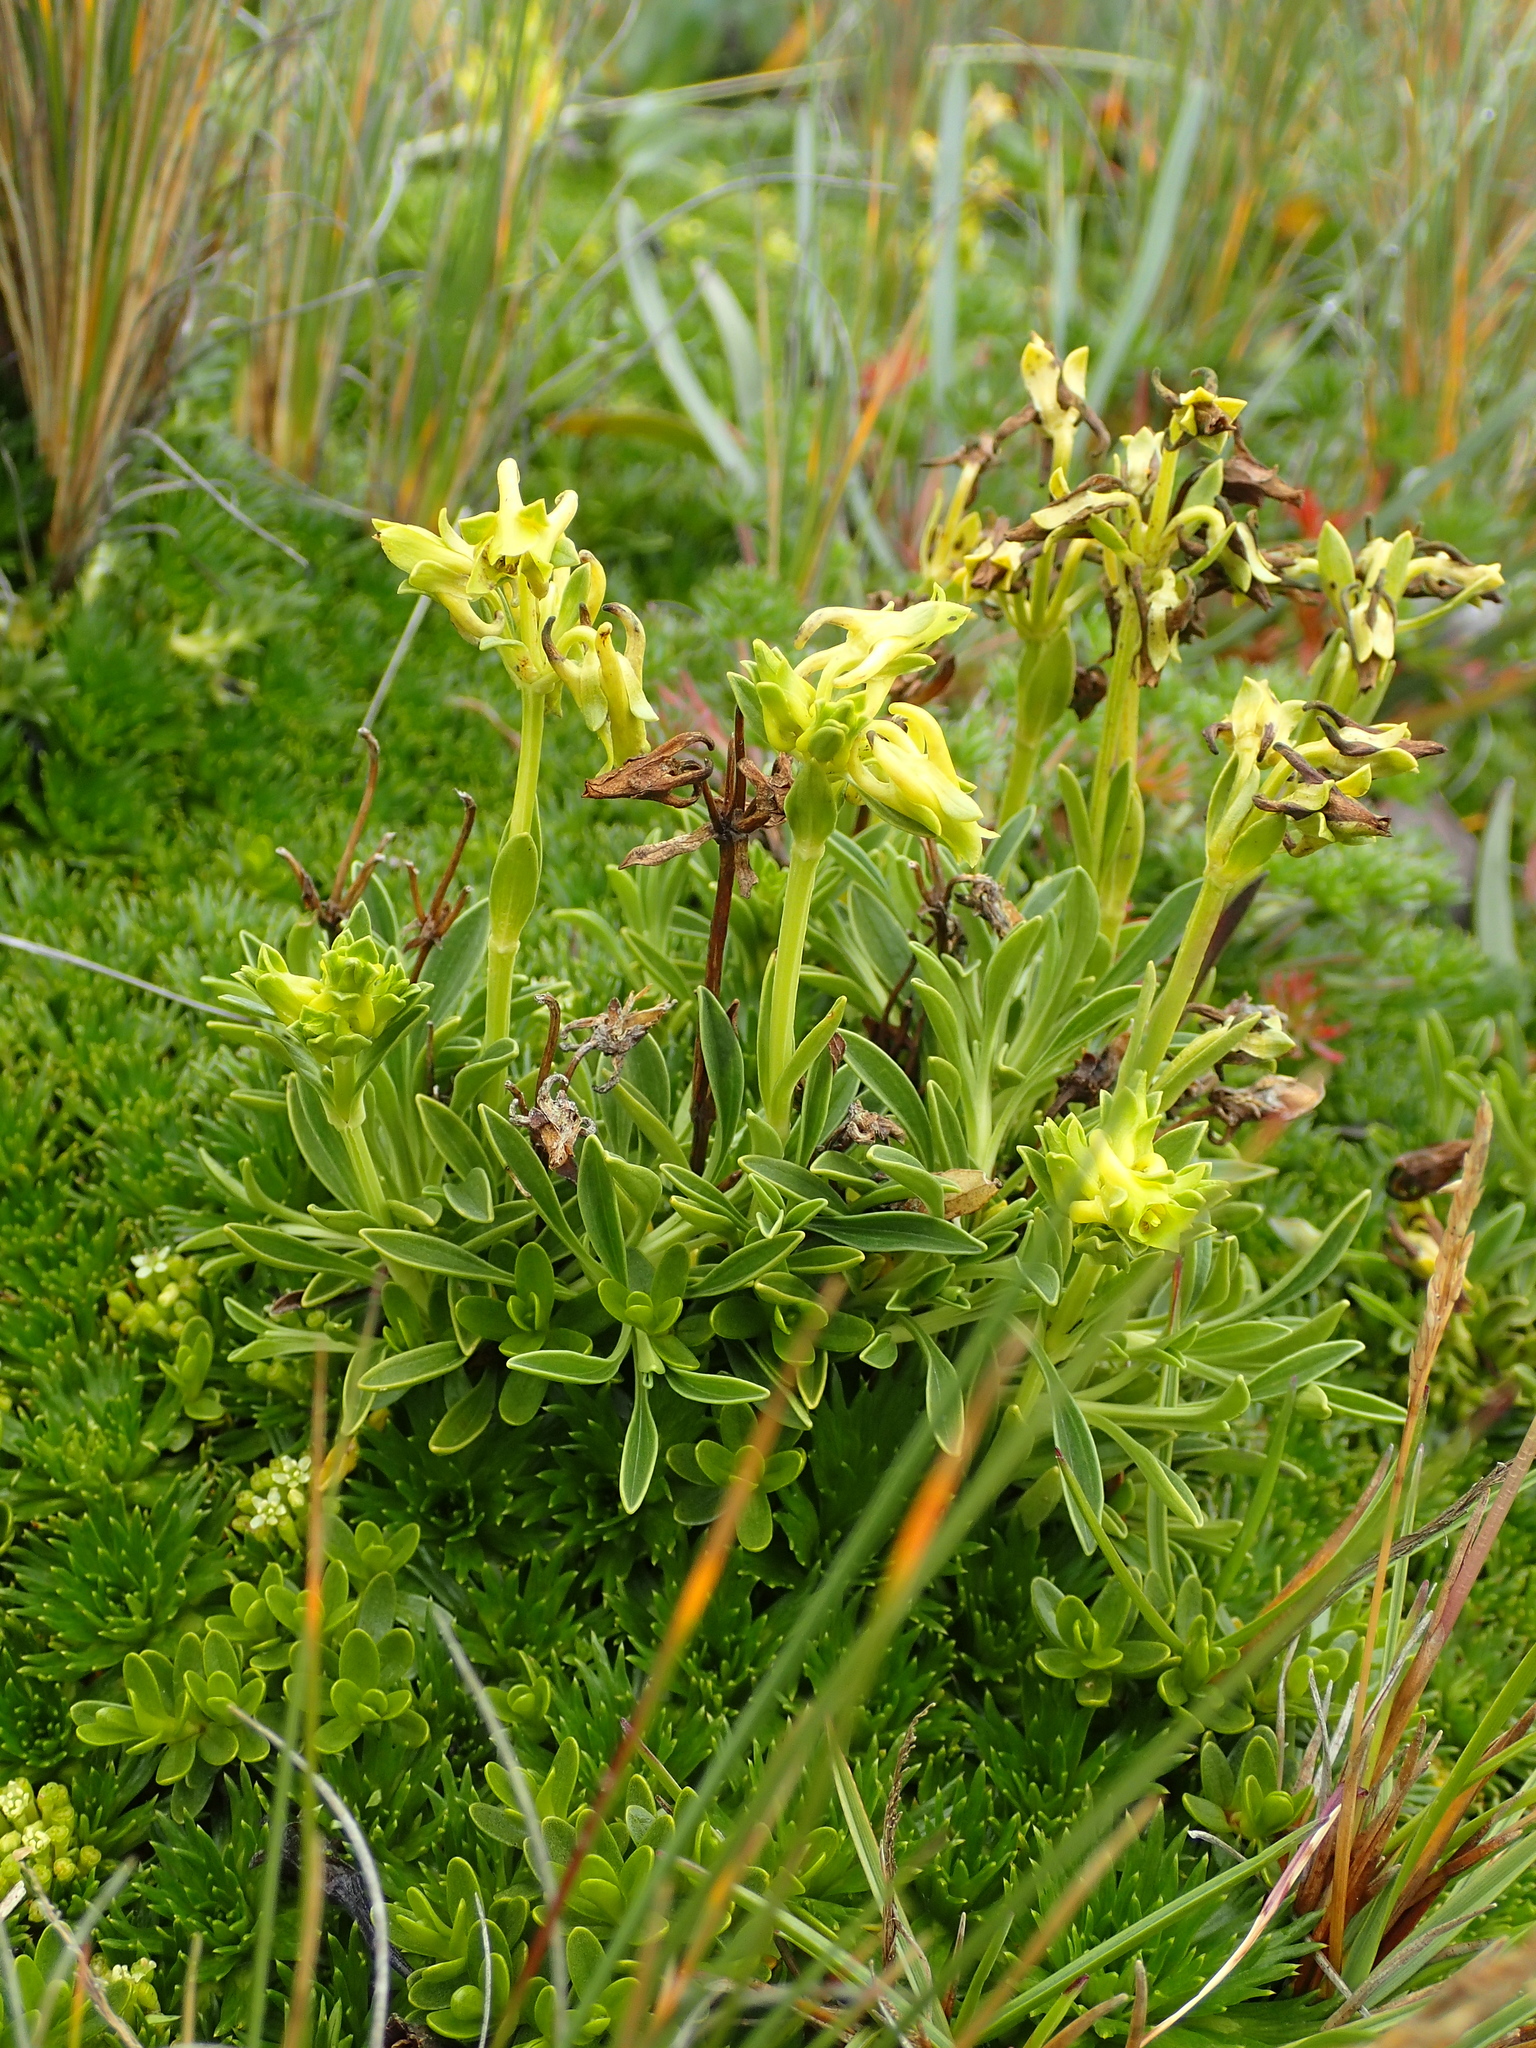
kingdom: Plantae
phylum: Tracheophyta
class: Magnoliopsida
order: Gentianales
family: Gentianaceae
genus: Halenia
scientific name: Halenia weddelliana
